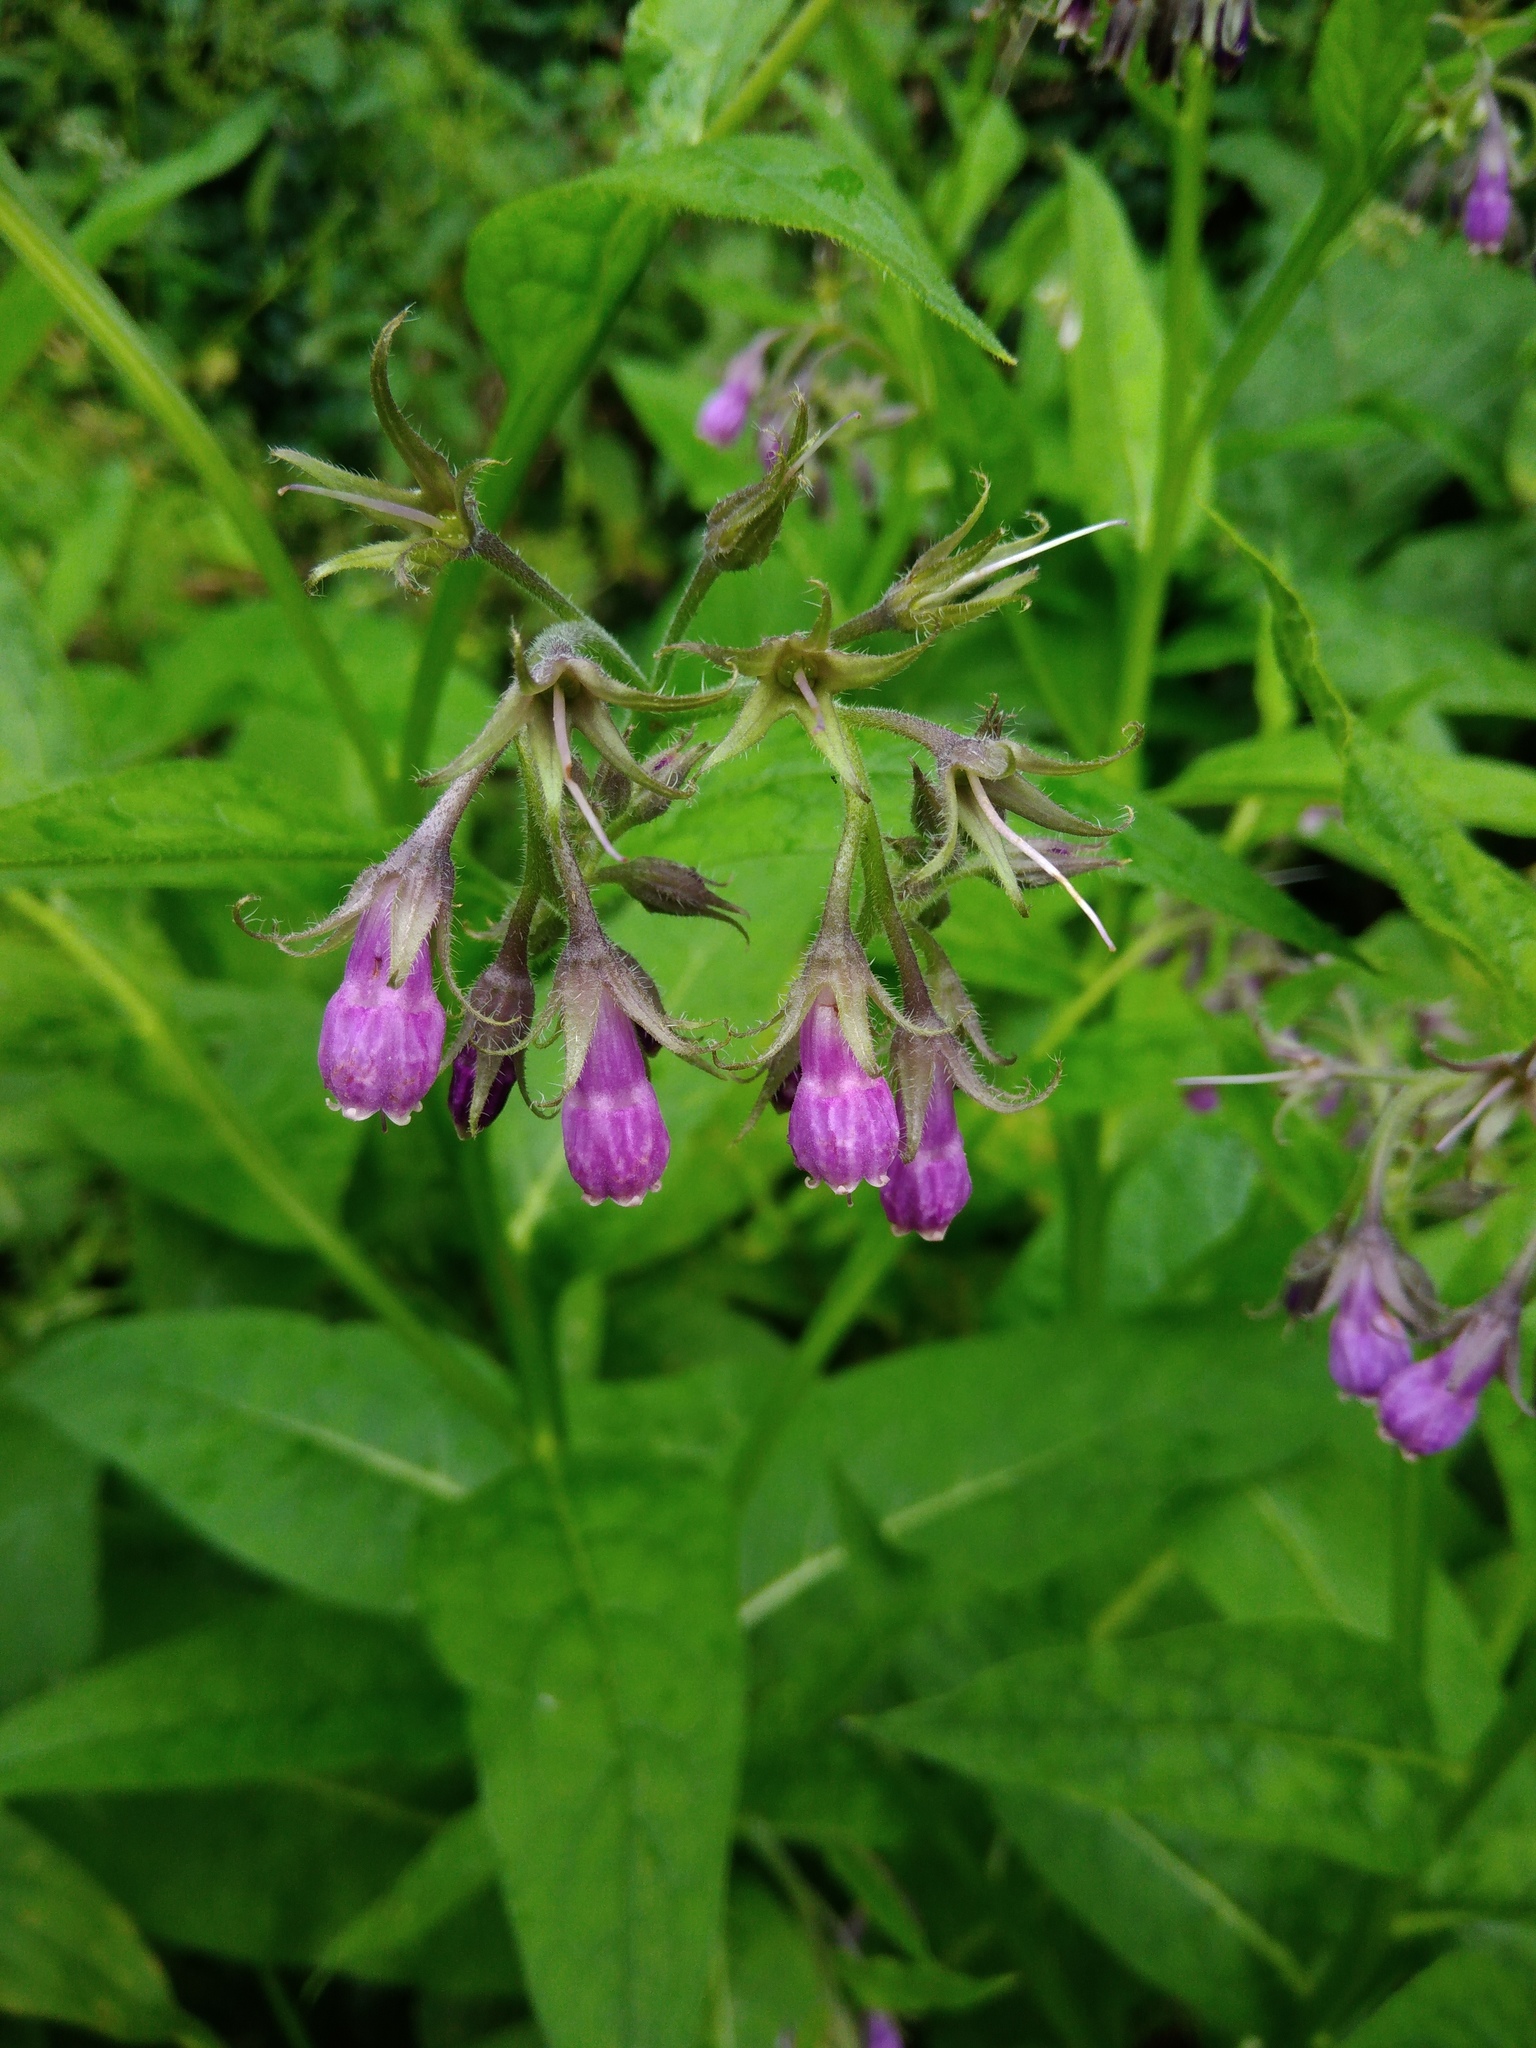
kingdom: Plantae
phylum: Tracheophyta
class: Magnoliopsida
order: Boraginales
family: Boraginaceae
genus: Symphytum
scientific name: Symphytum officinale
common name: Common comfrey
